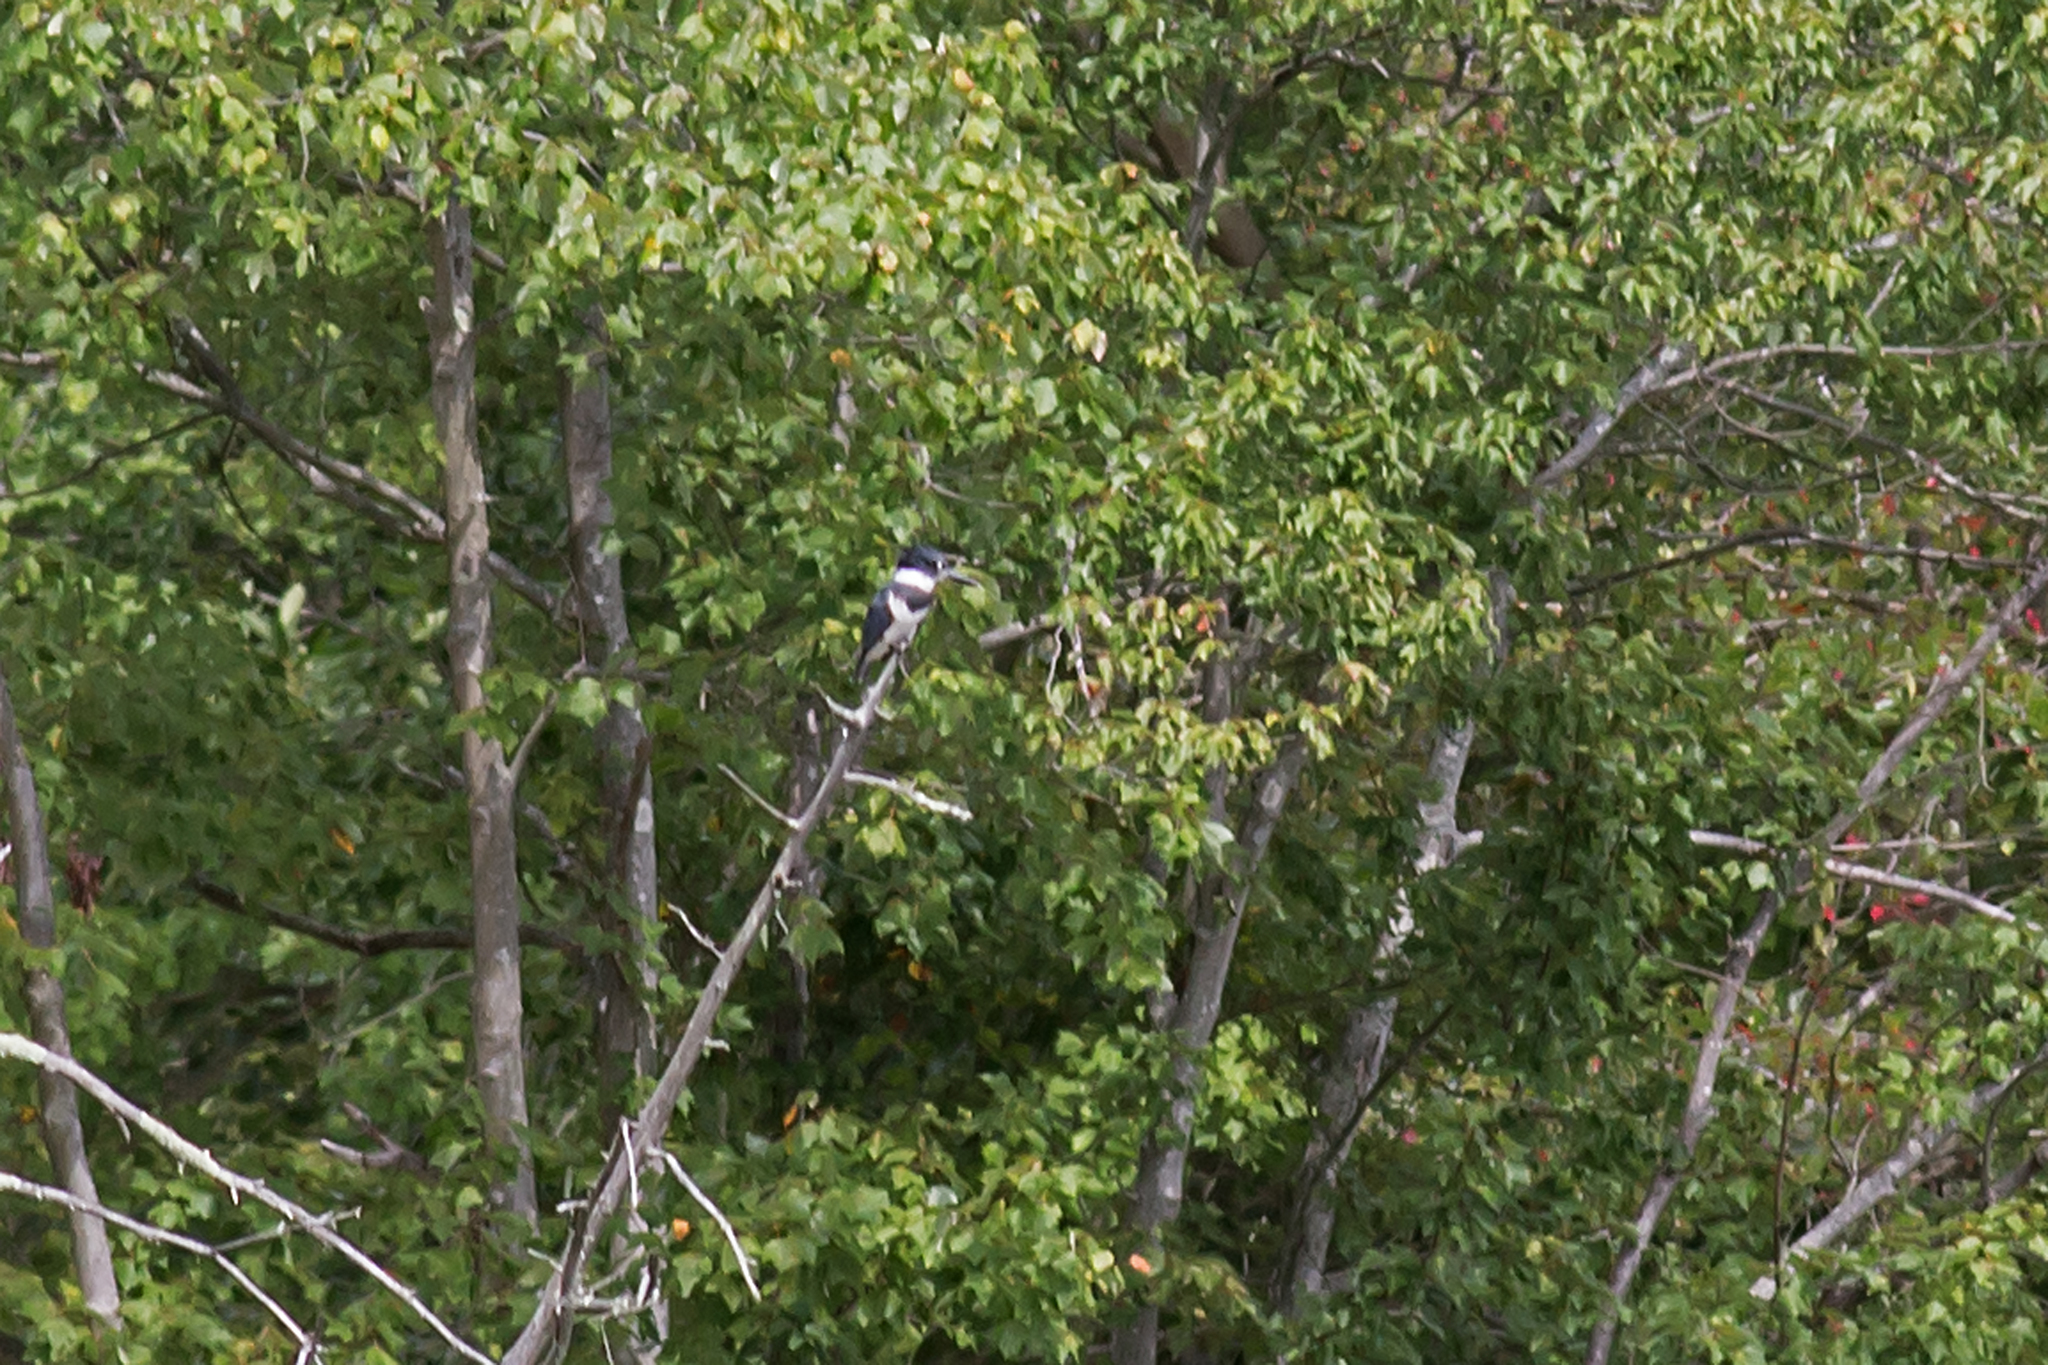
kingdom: Animalia
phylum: Chordata
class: Aves
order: Coraciiformes
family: Alcedinidae
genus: Megaceryle
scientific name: Megaceryle alcyon
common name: Belted kingfisher
